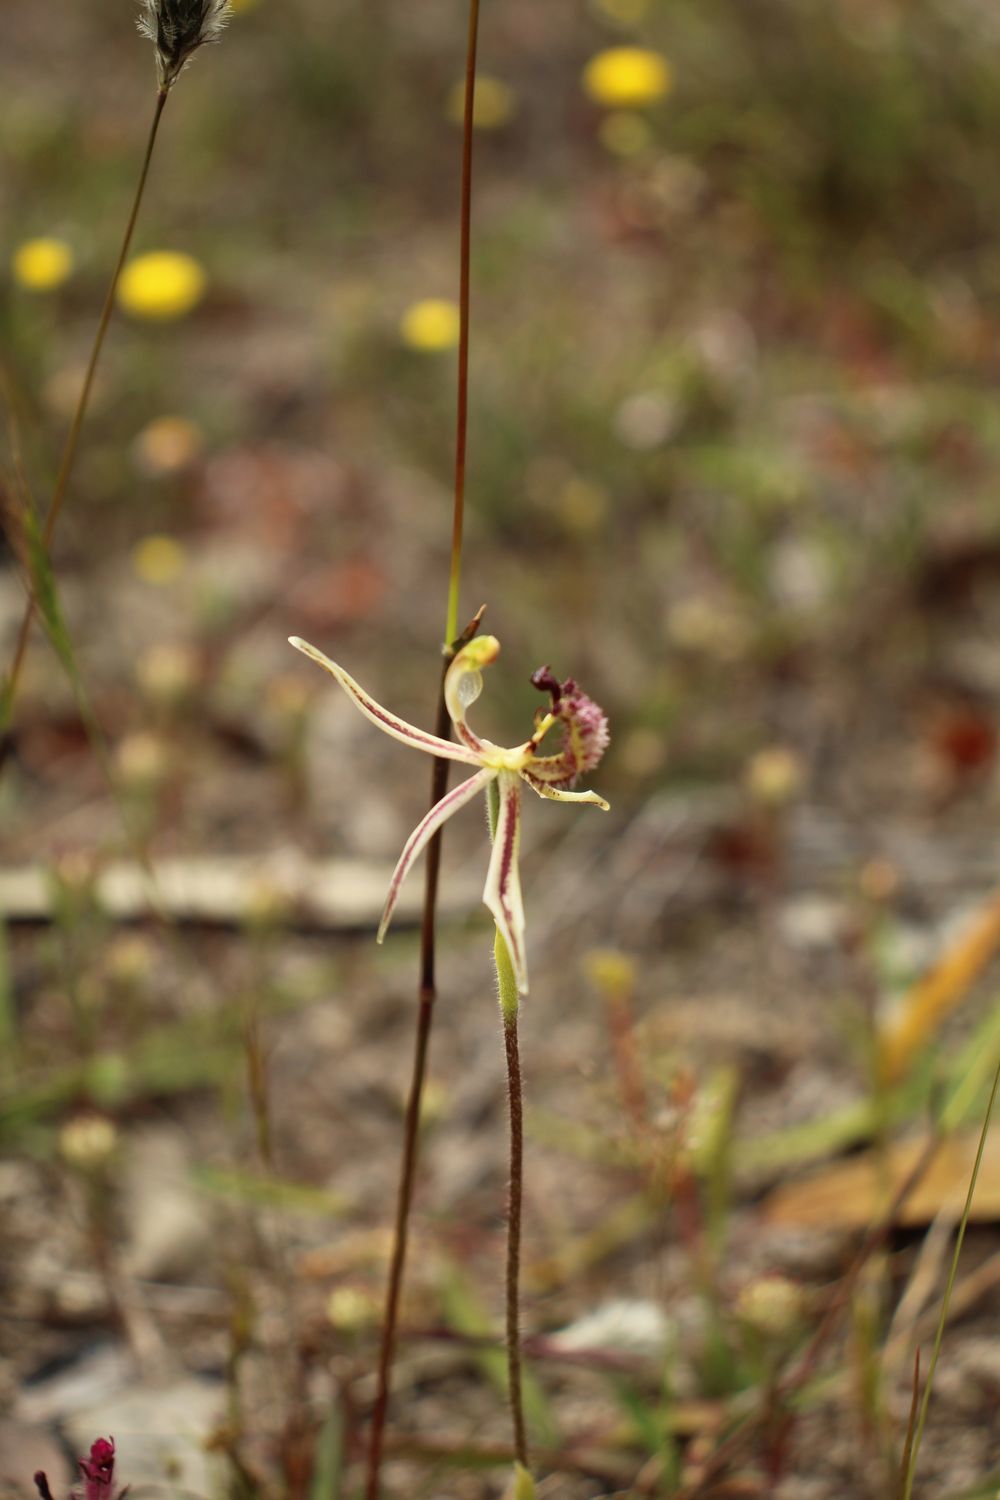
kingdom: Plantae
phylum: Tracheophyta
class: Liliopsida
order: Asparagales
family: Orchidaceae
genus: Caladenia
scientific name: Caladenia barbarossa
